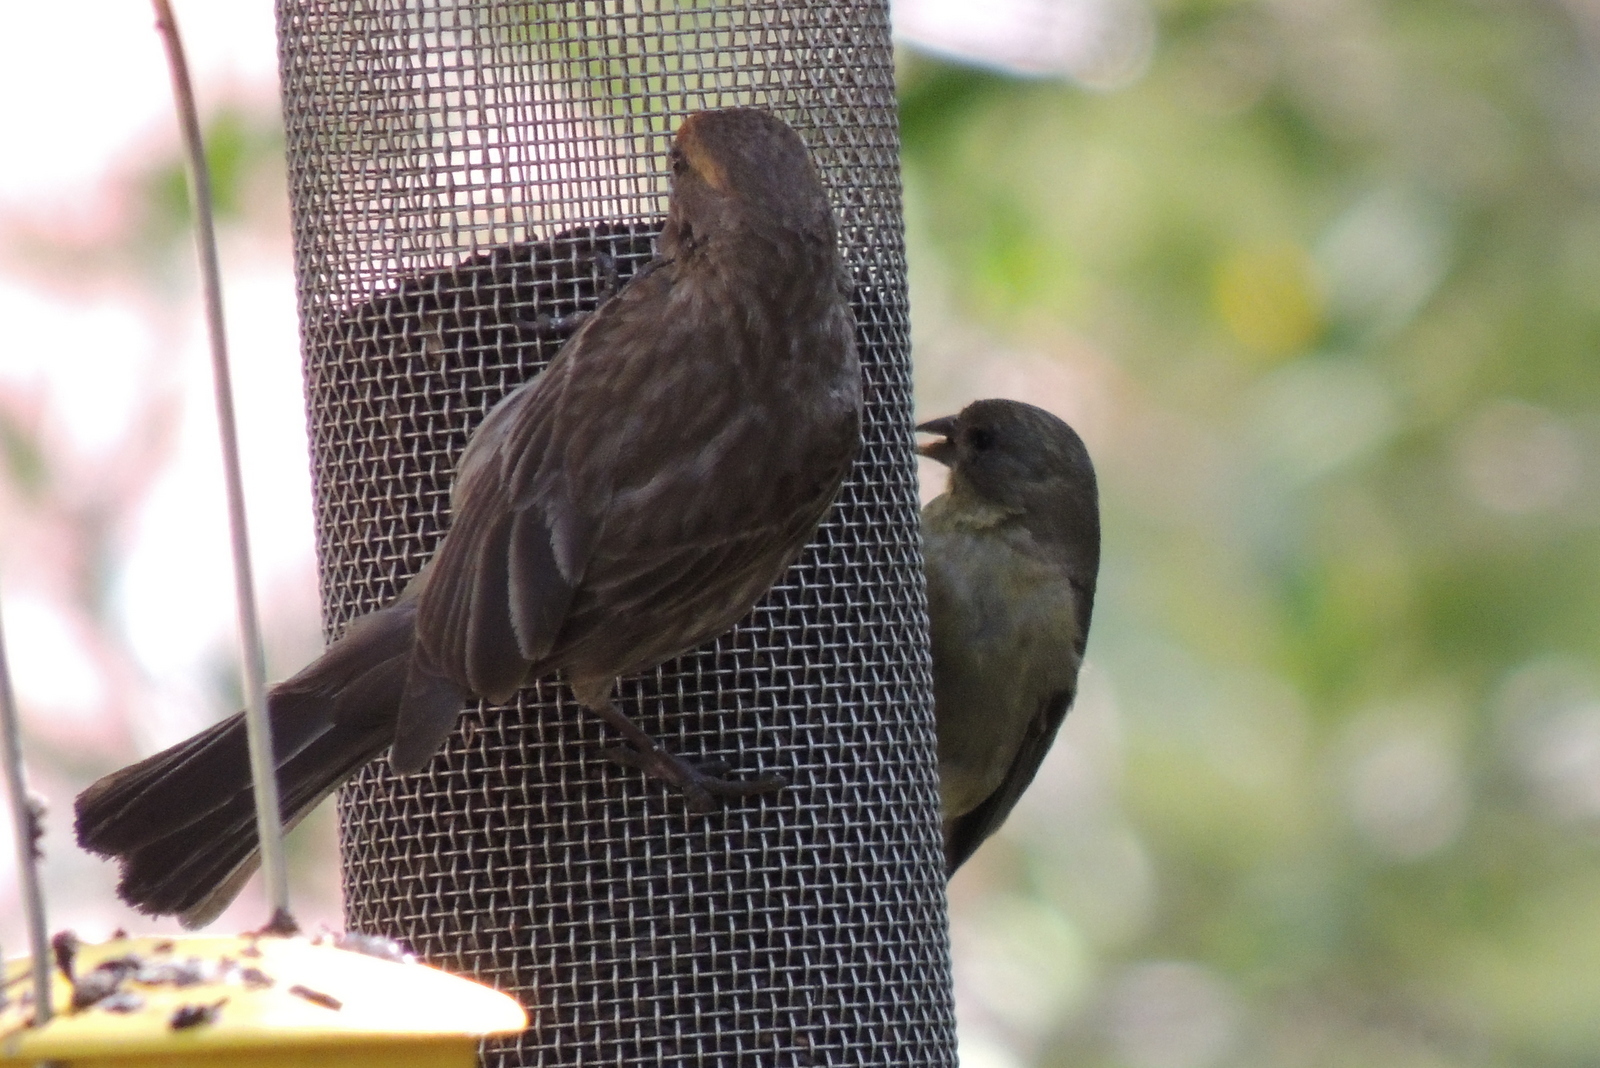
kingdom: Animalia
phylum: Chordata
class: Aves
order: Passeriformes
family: Fringillidae
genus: Haemorhous
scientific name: Haemorhous mexicanus
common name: House finch
